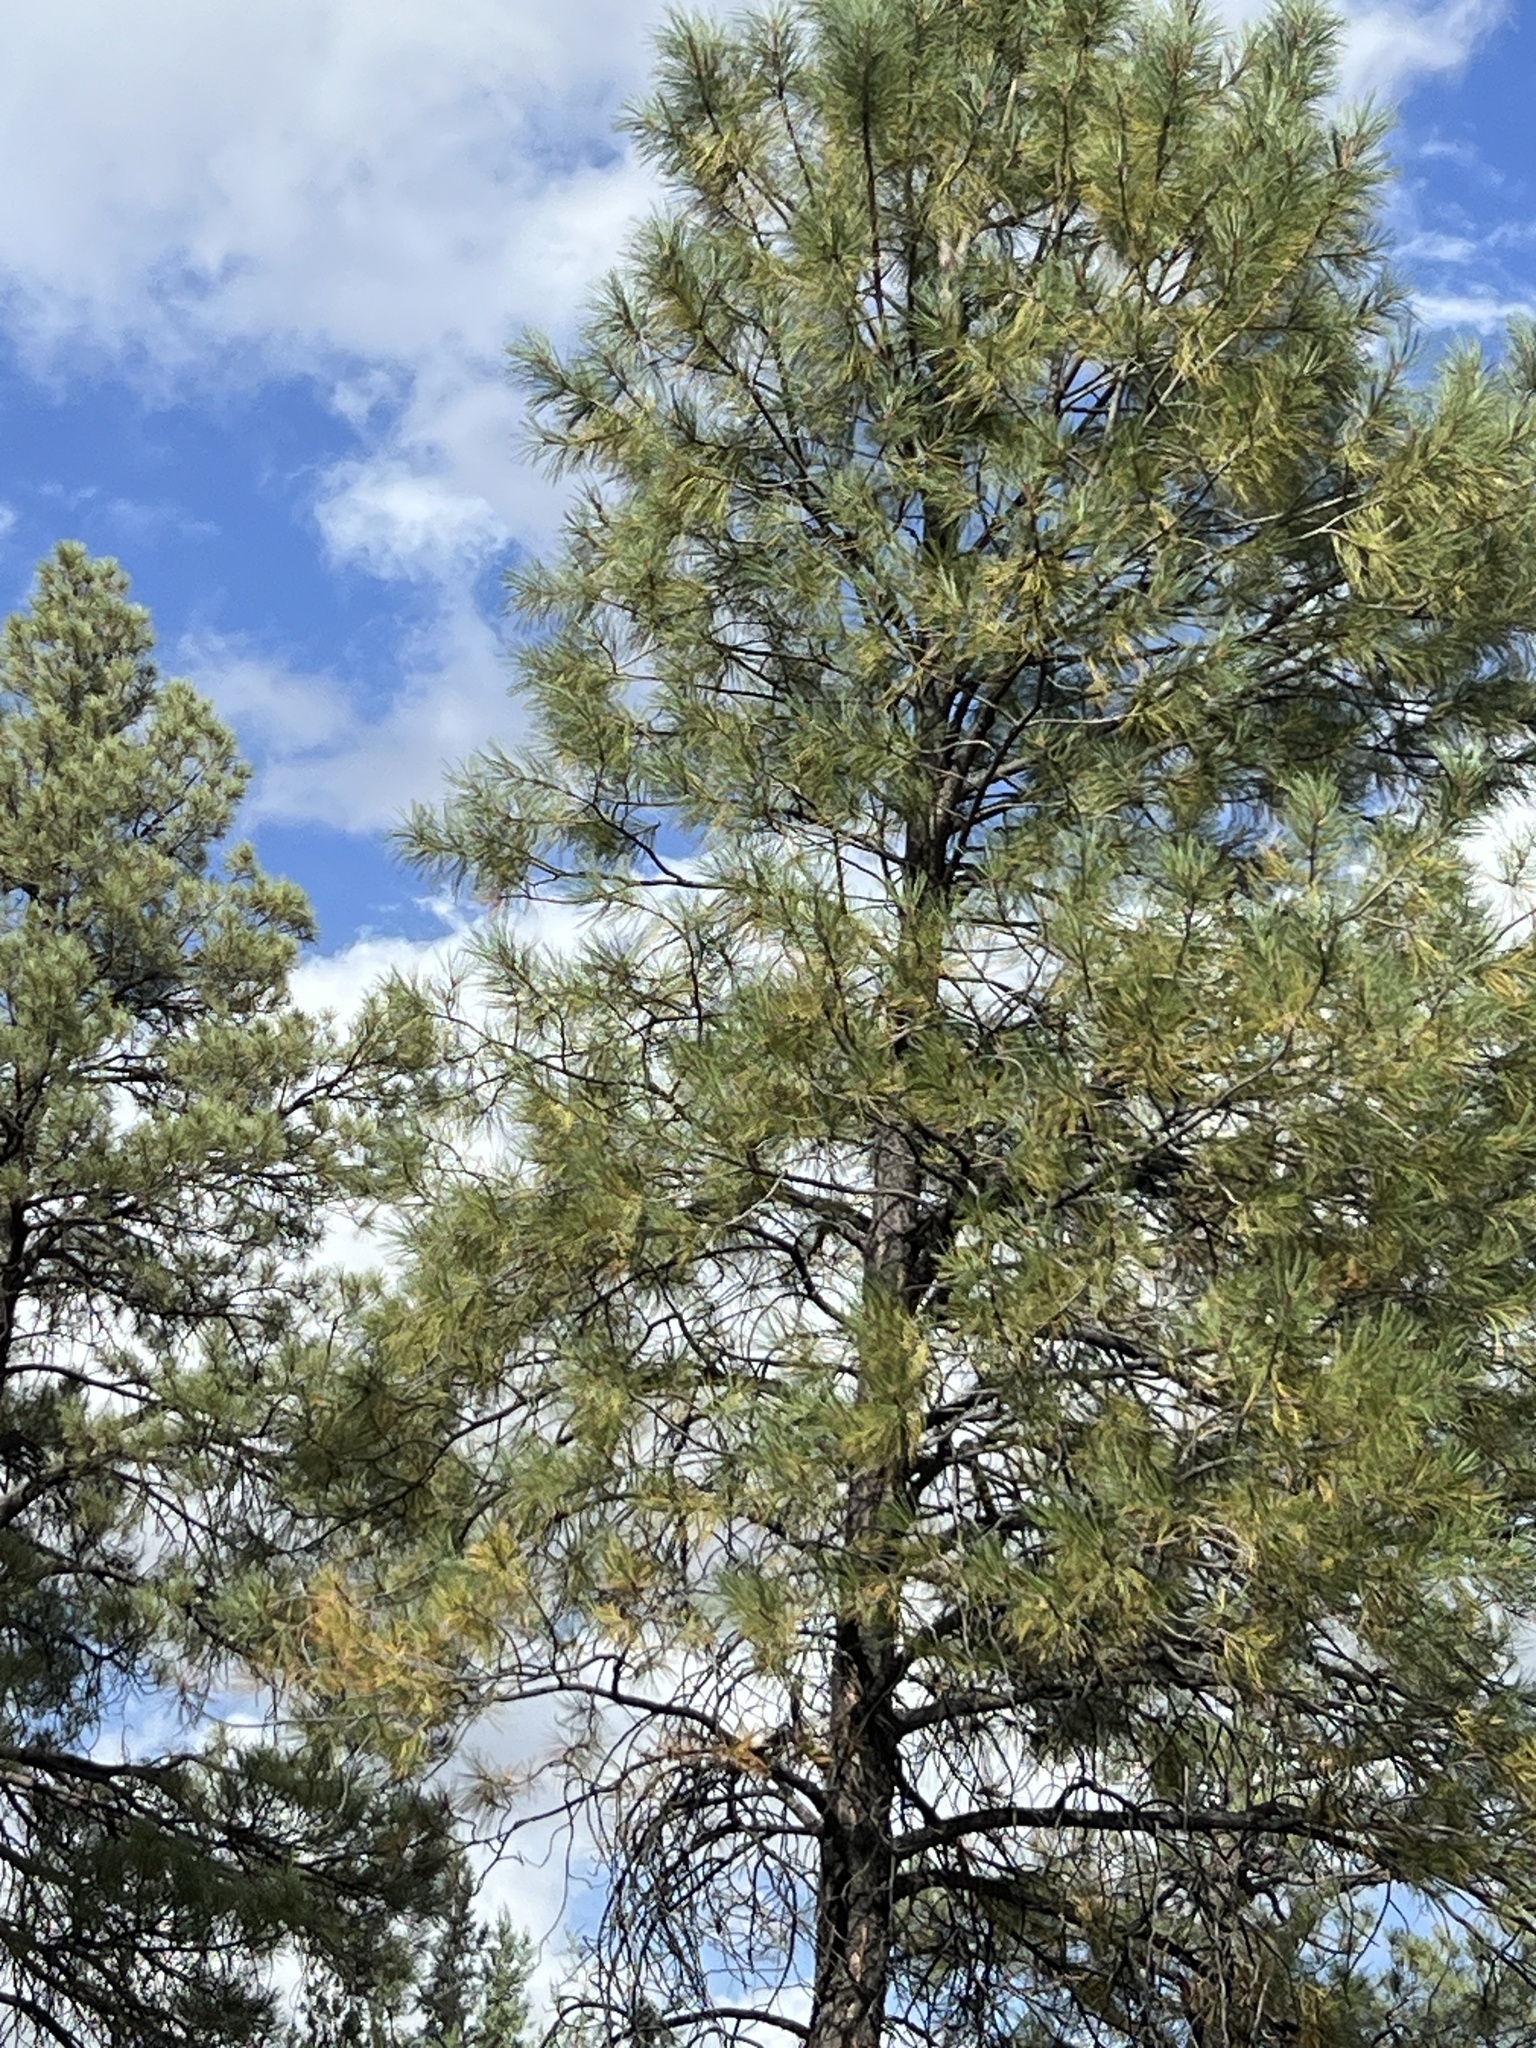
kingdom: Plantae
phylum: Tracheophyta
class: Pinopsida
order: Pinales
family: Pinaceae
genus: Pinus
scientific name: Pinus ponderosa
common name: Western yellow-pine
